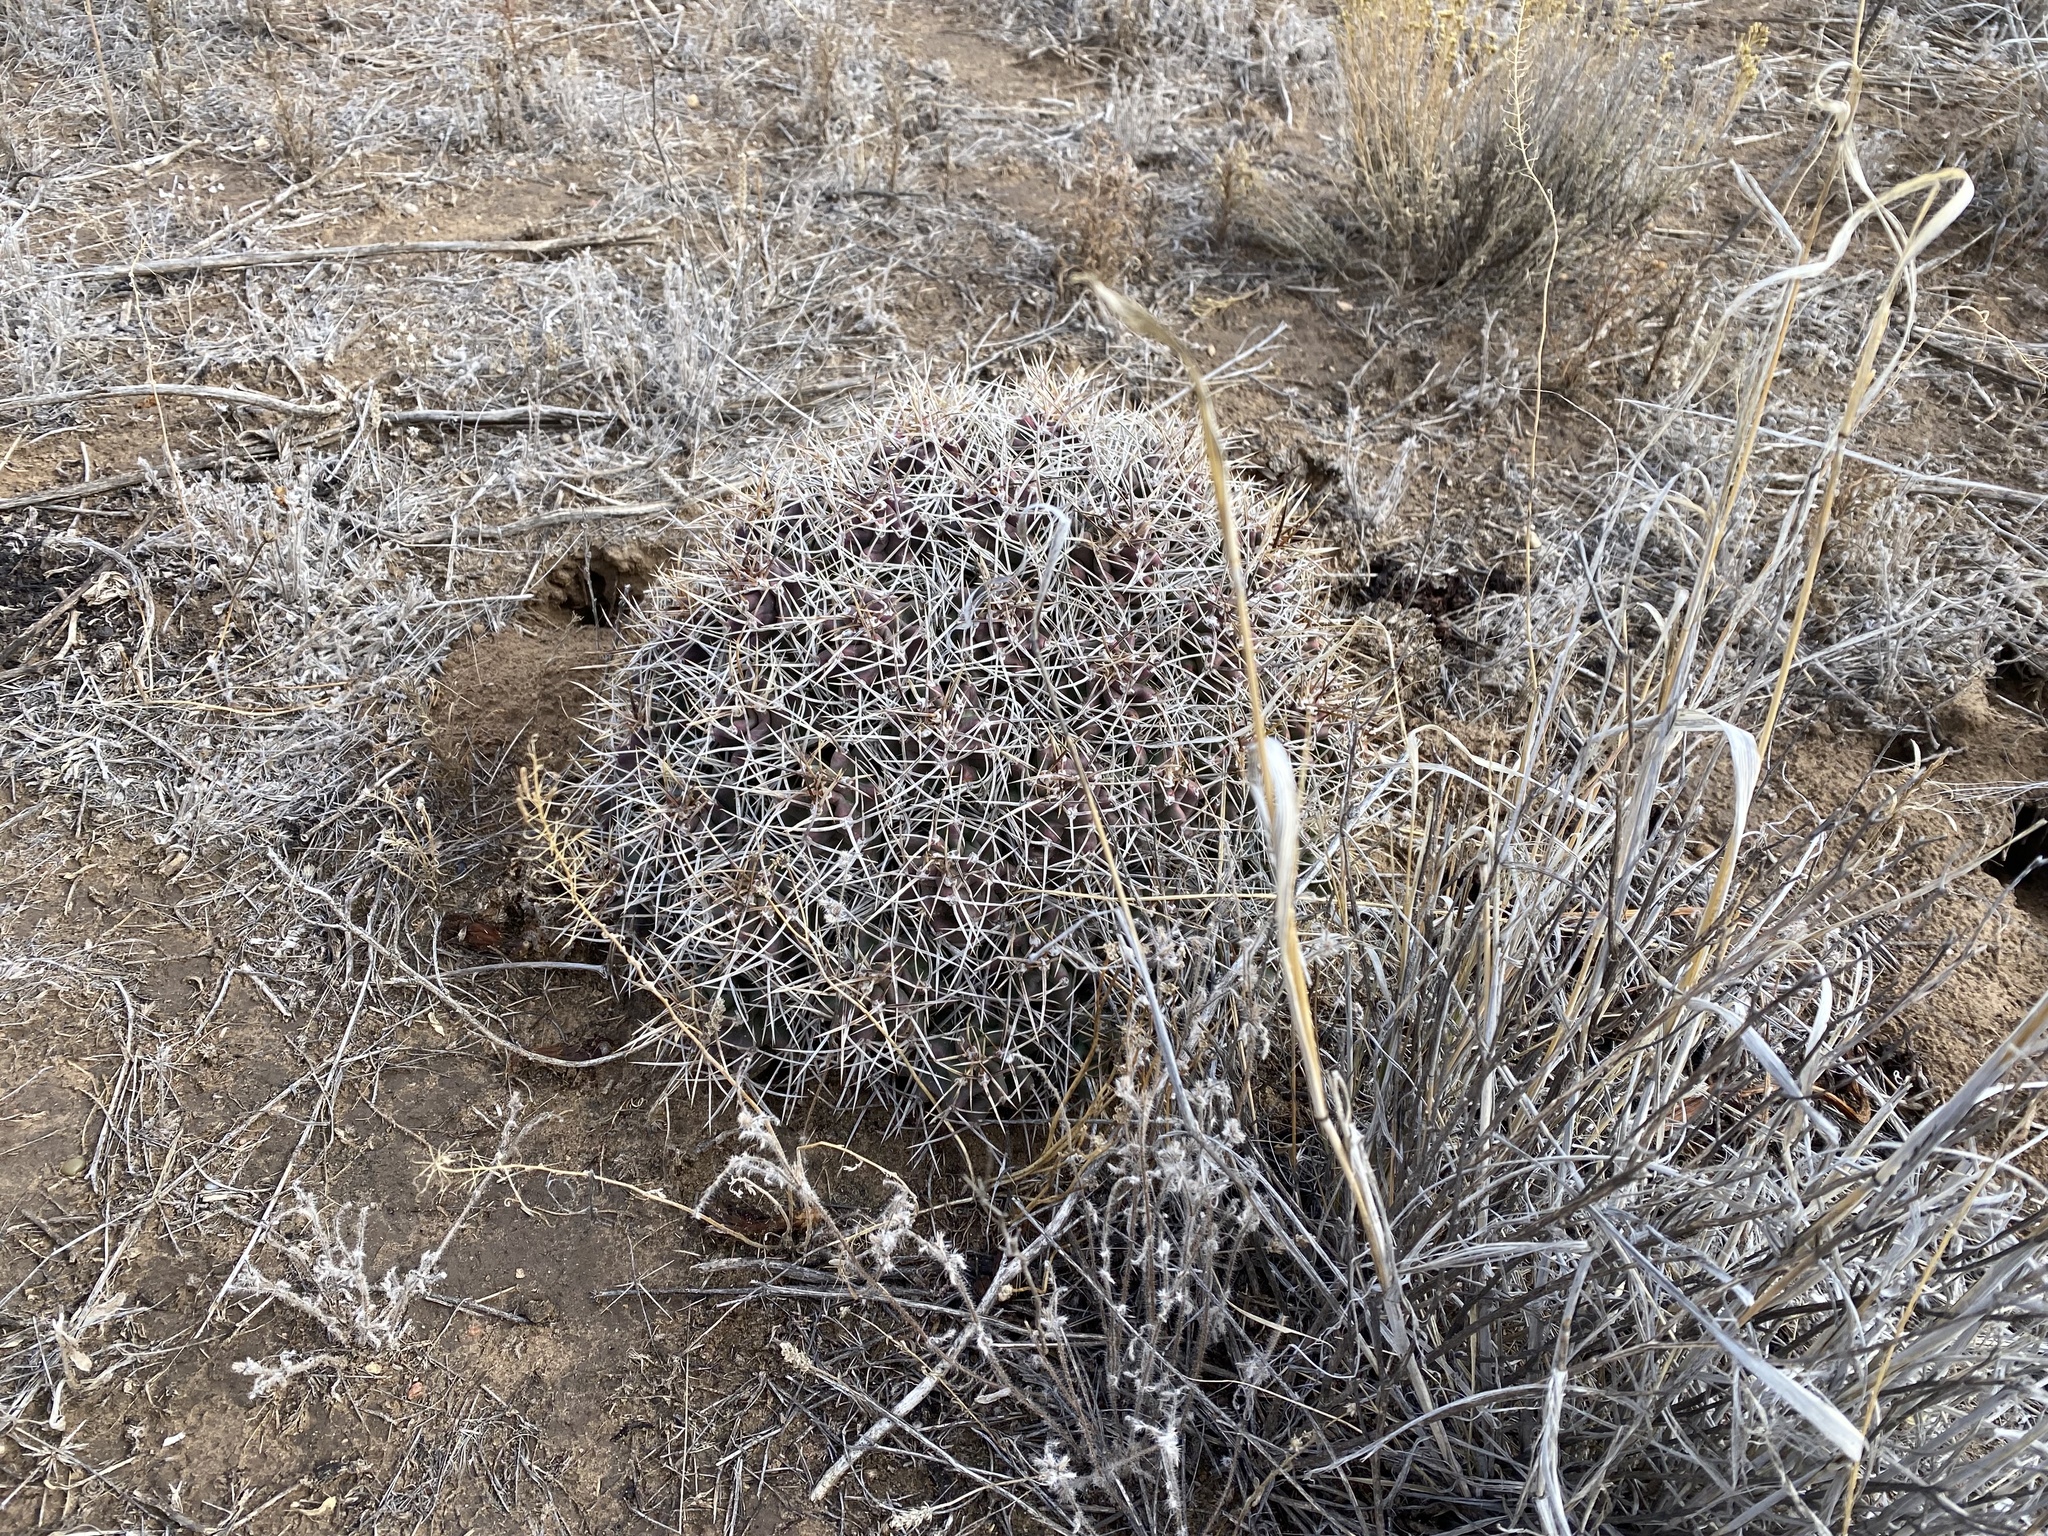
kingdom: Plantae
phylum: Tracheophyta
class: Magnoliopsida
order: Caryophyllales
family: Cactaceae
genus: Echinocereus
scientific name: Echinocereus triglochidiatus
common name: Claretcup hedgehog
